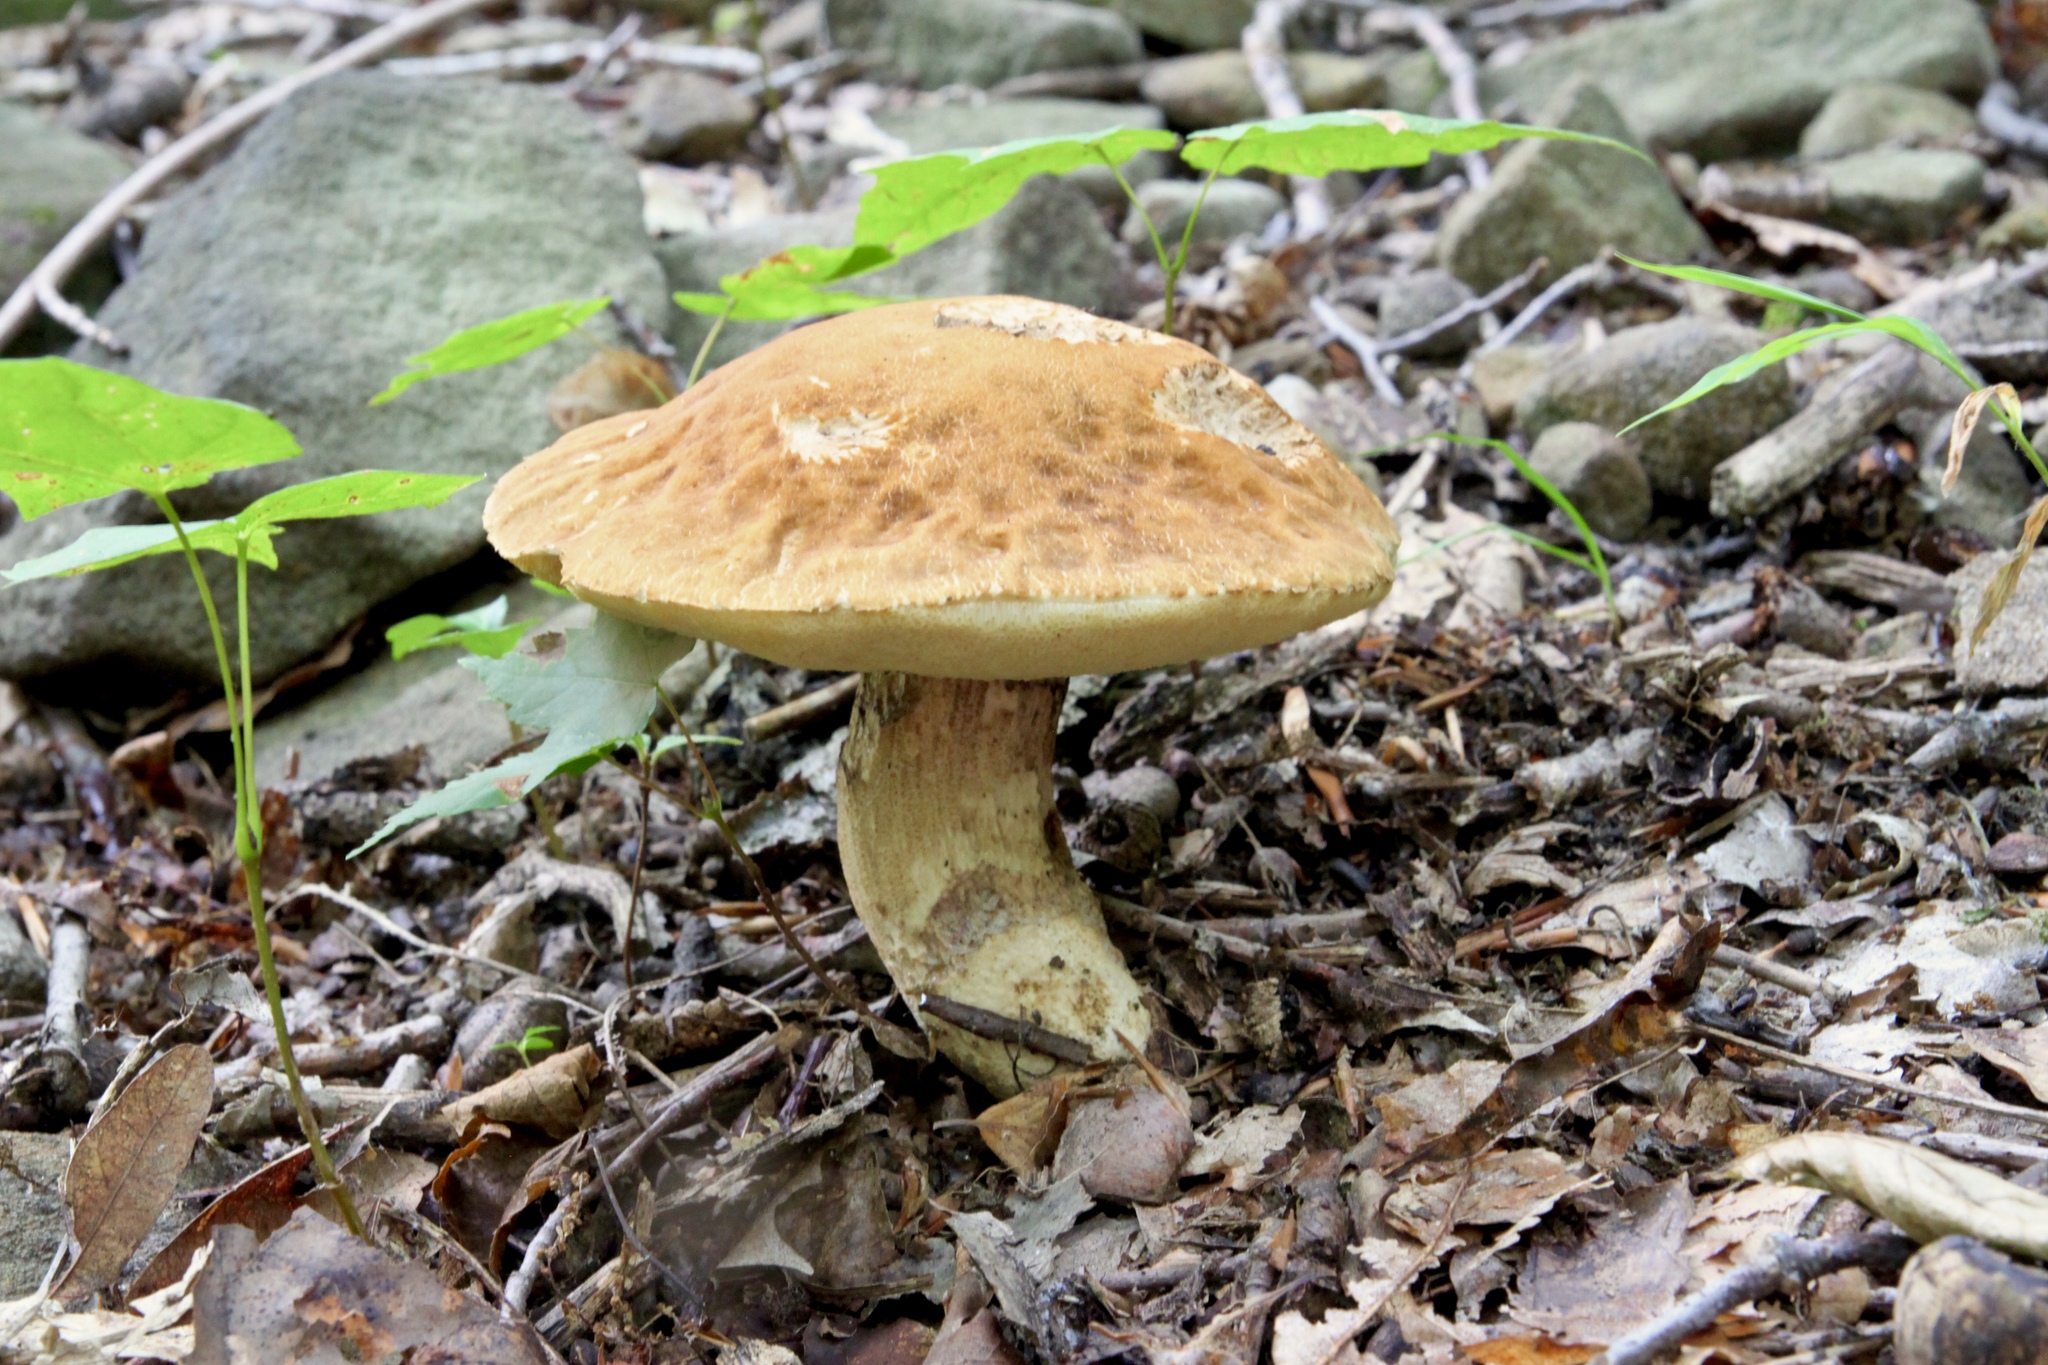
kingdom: Fungi
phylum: Basidiomycota
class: Agaricomycetes
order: Boletales
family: Boletaceae
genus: Leccinellum
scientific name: Leccinellum rugosiceps
